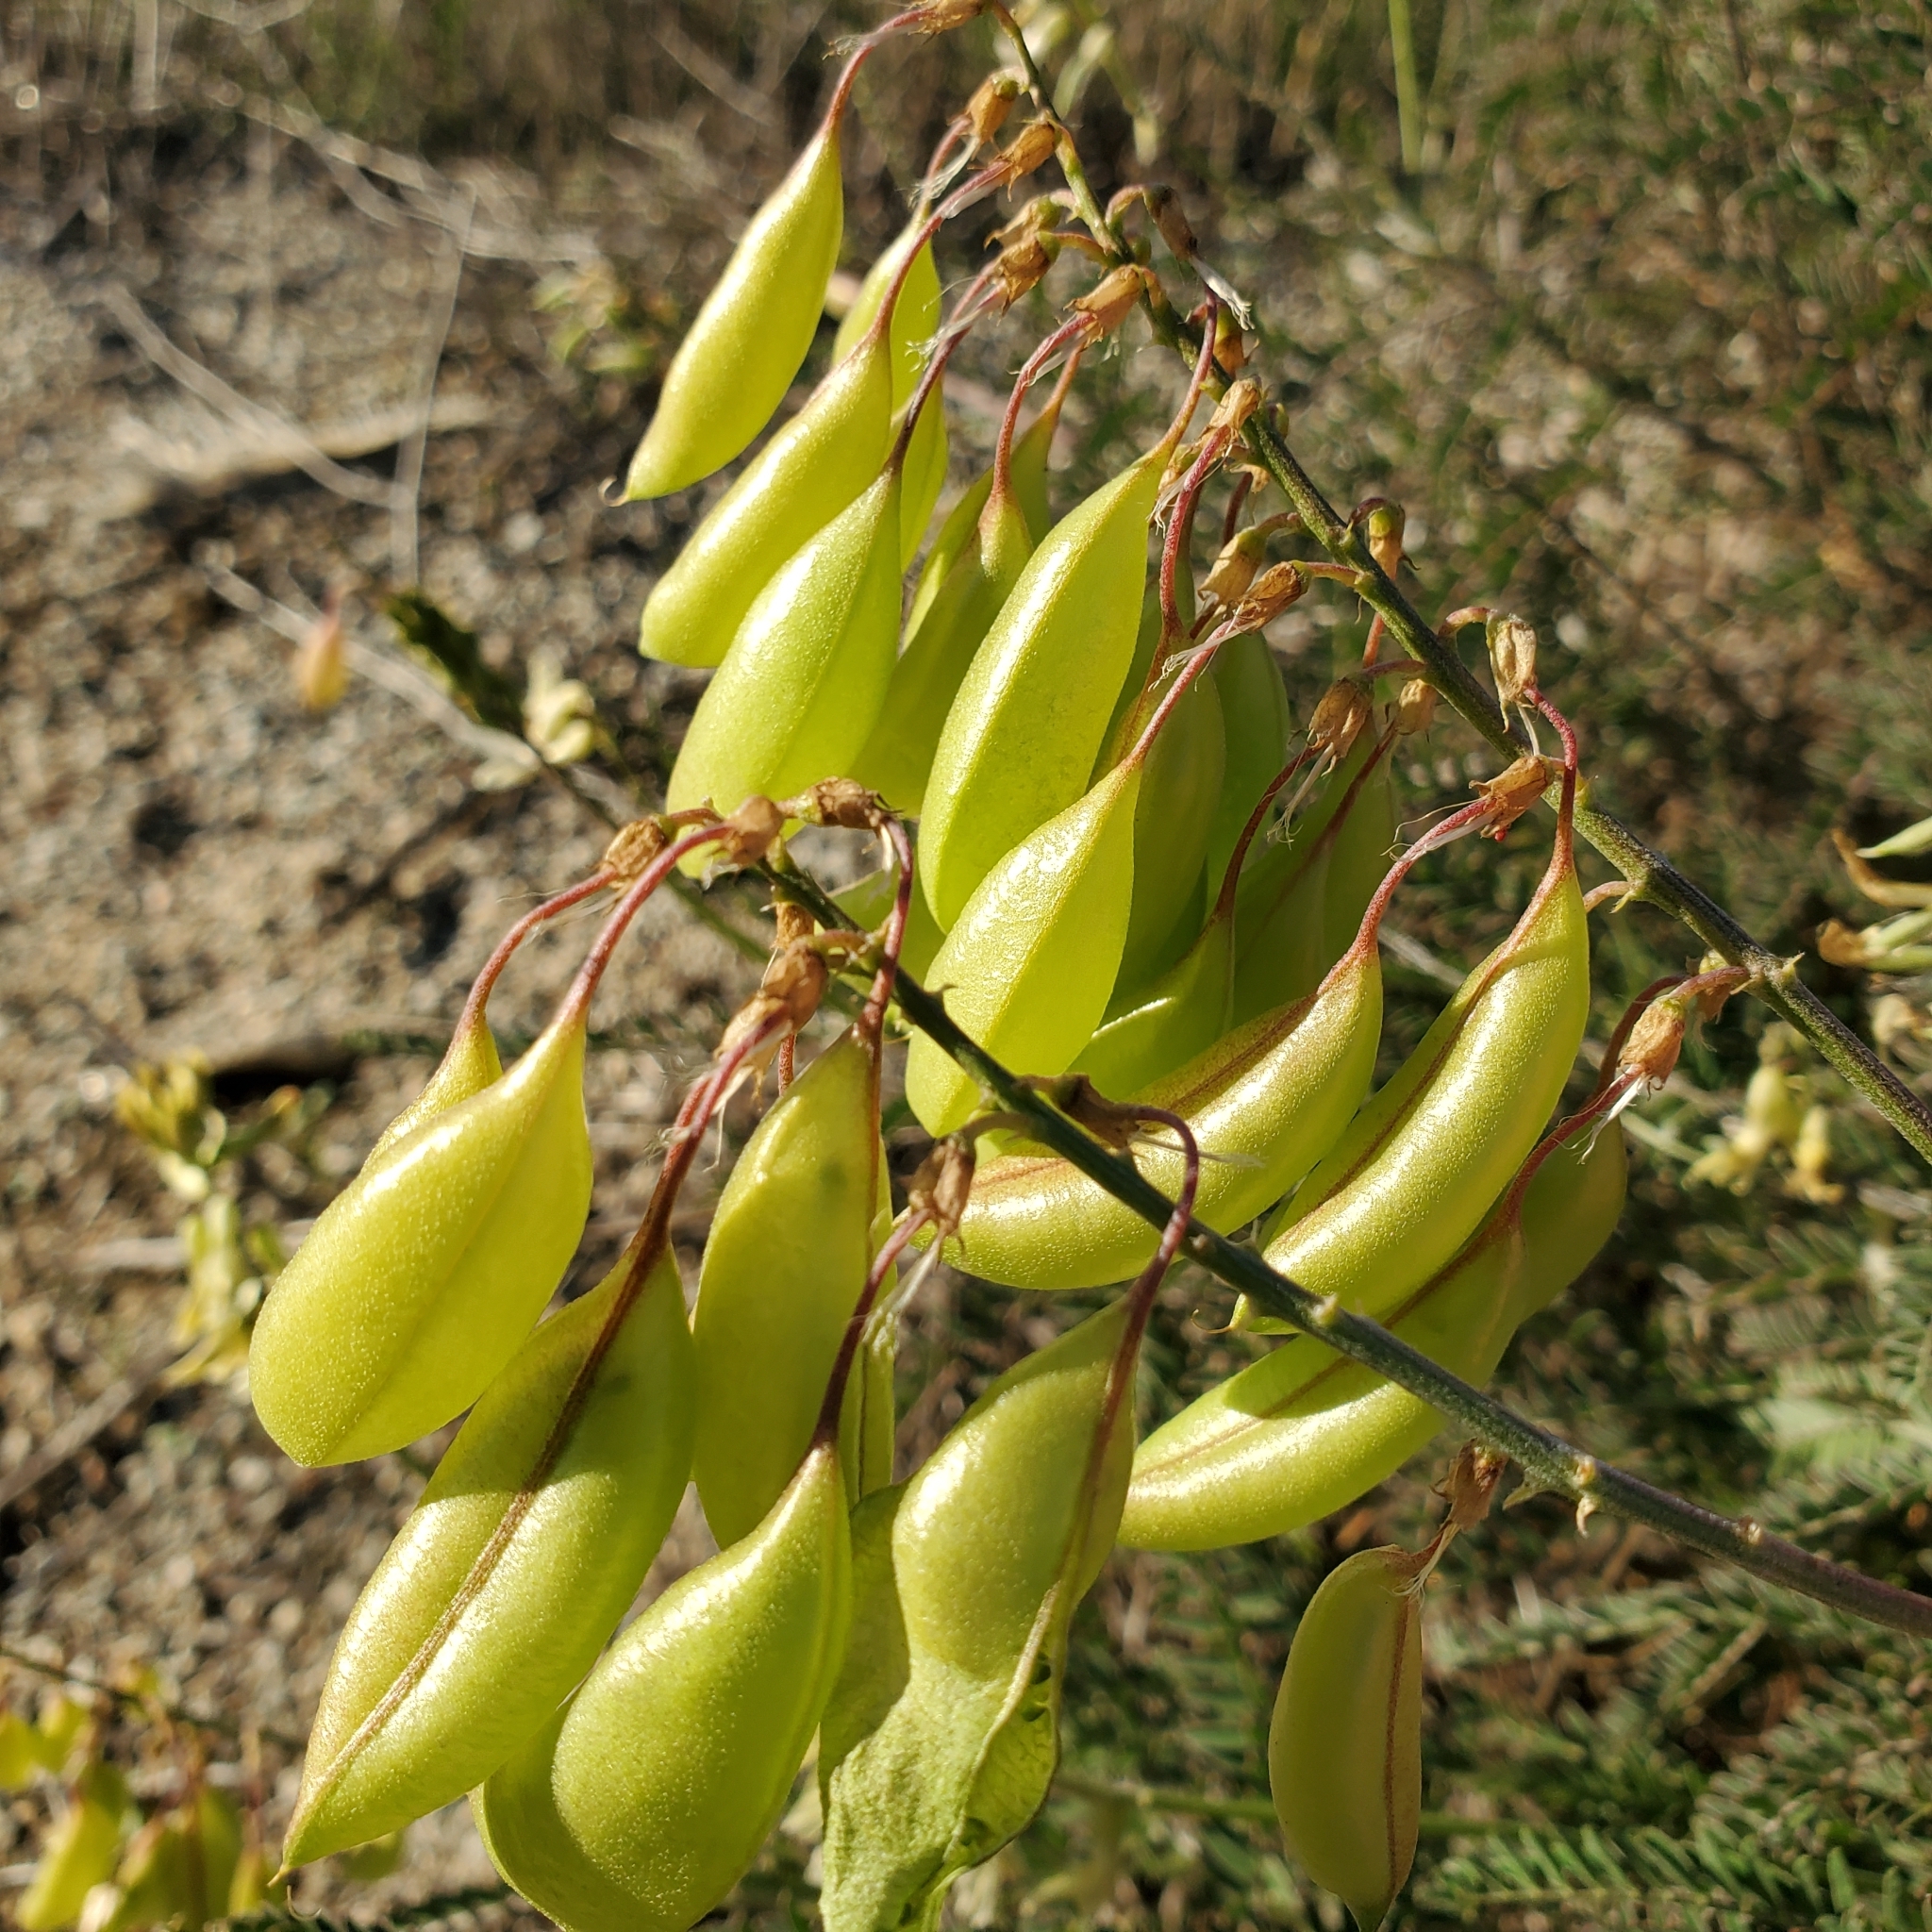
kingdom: Plantae
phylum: Tracheophyta
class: Magnoliopsida
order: Fabales
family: Fabaceae
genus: Astragalus
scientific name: Astragalus trichopodus
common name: Santa barbara milk-vetch
